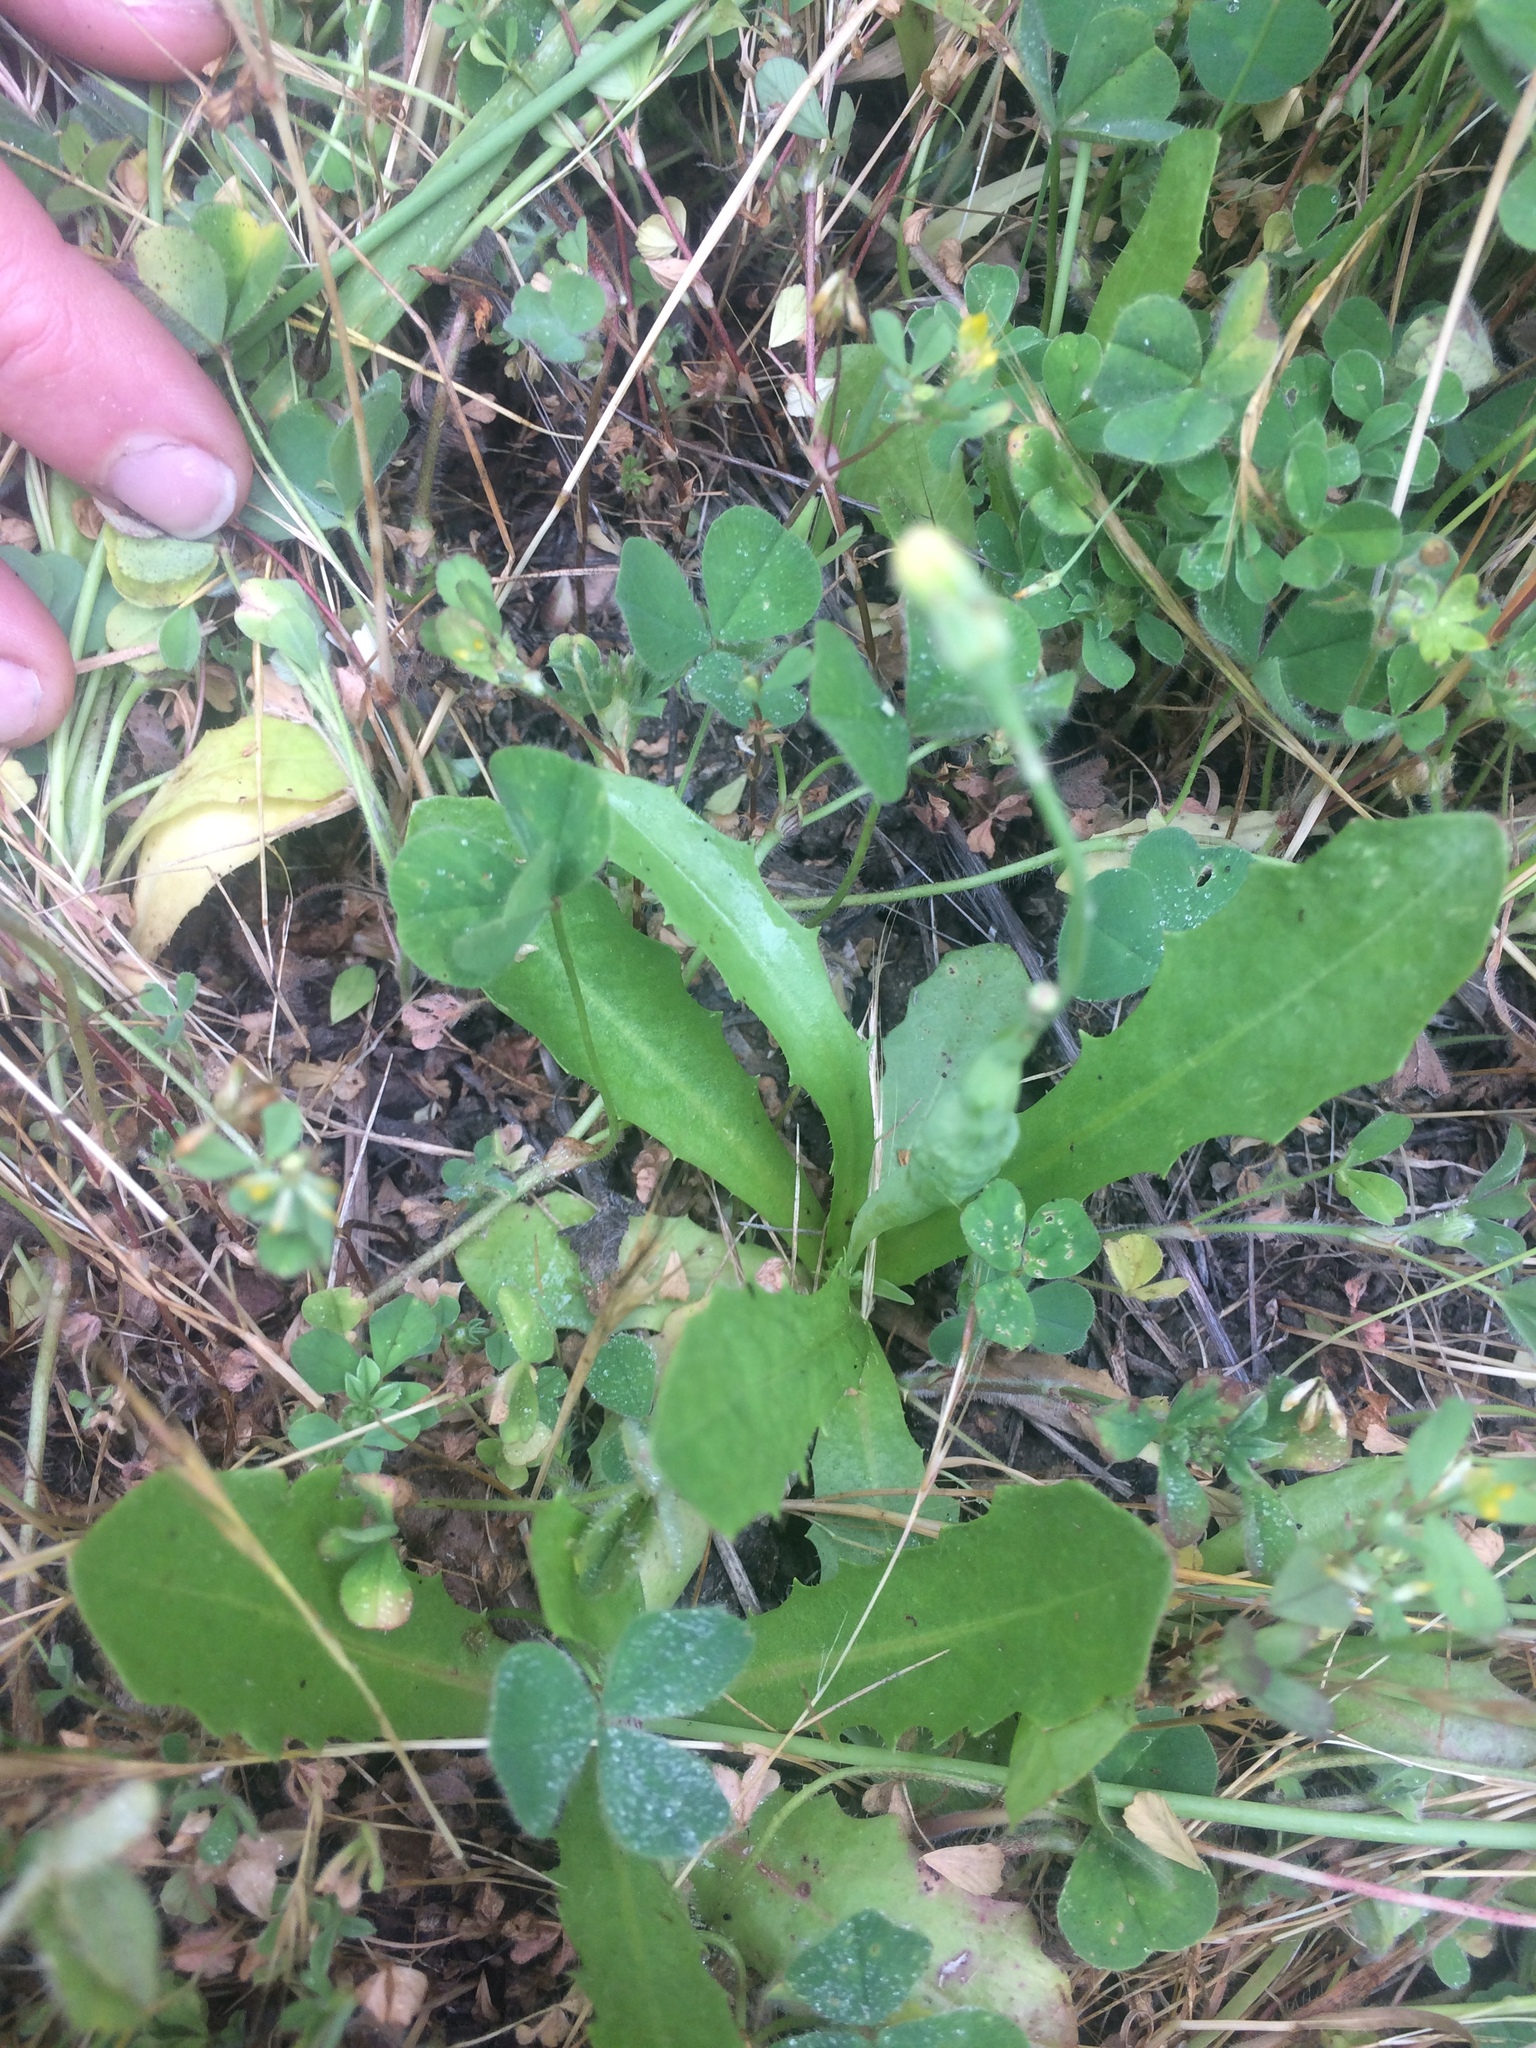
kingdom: Animalia
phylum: Arthropoda
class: Insecta
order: Hymenoptera
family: Cynipidae
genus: Phanacis
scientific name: Phanacis hypochoeridis
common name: Gall wasp
